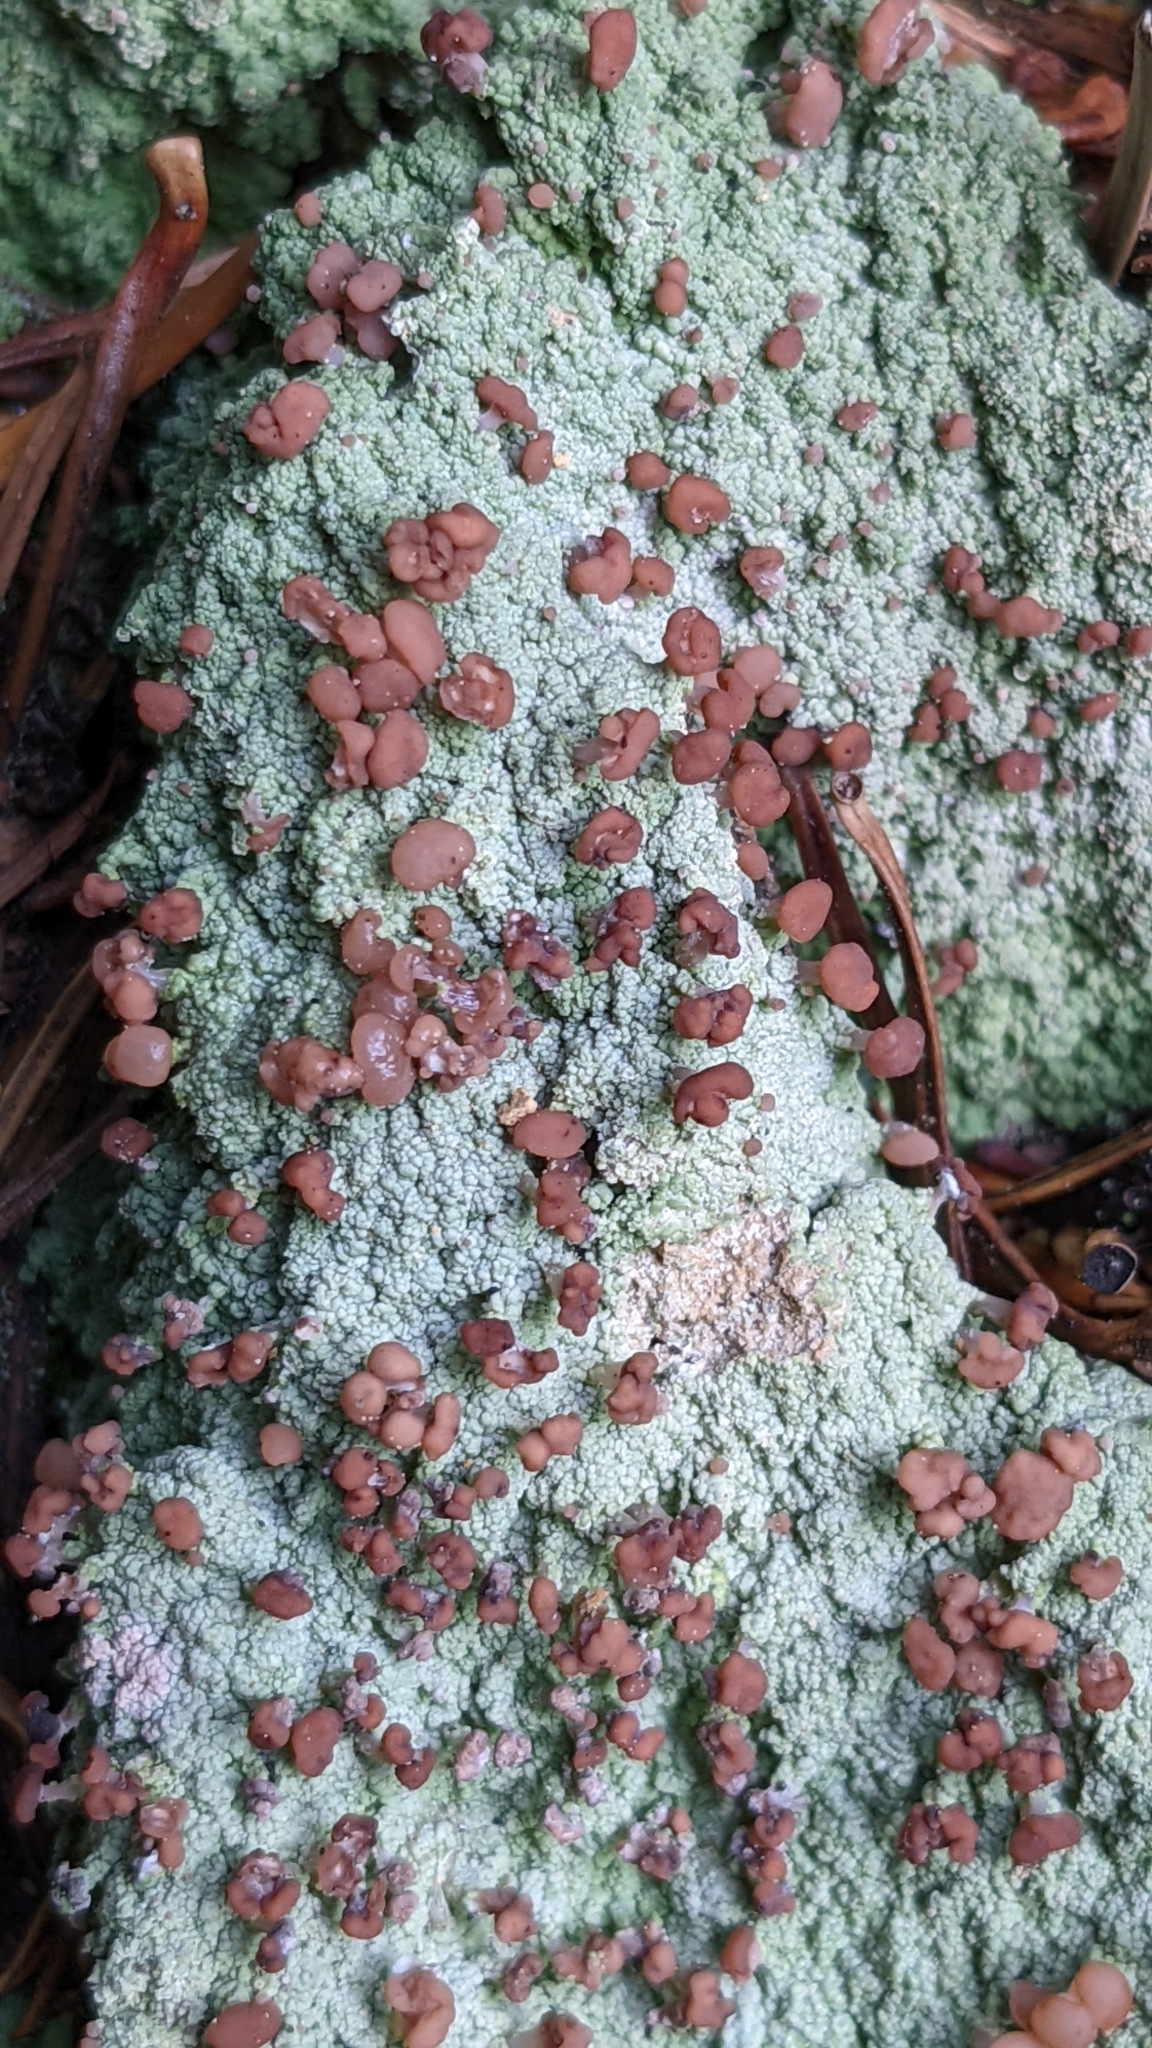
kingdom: Fungi
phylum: Ascomycota
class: Lecanoromycetes
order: Baeomycetales
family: Baeomycetaceae
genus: Baeomyces
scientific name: Baeomyces rufus
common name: Brown beret lichen
